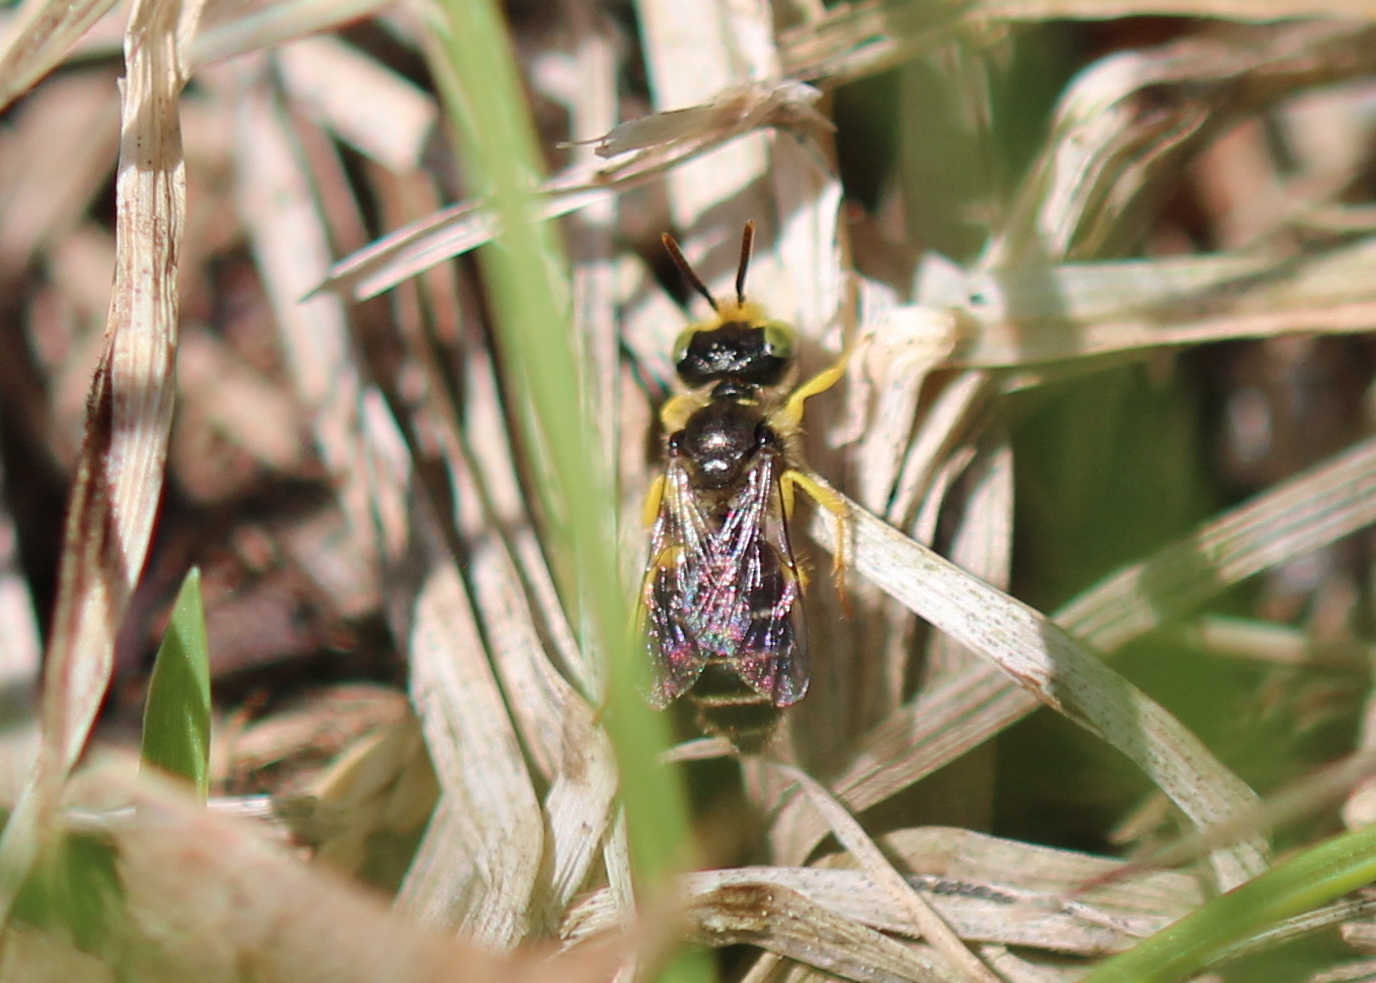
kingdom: Animalia
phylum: Arthropoda
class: Insecta
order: Hymenoptera
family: Andrenidae
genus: Calliopsis
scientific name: Calliopsis andreniformis
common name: Eastern calliopsis bee
